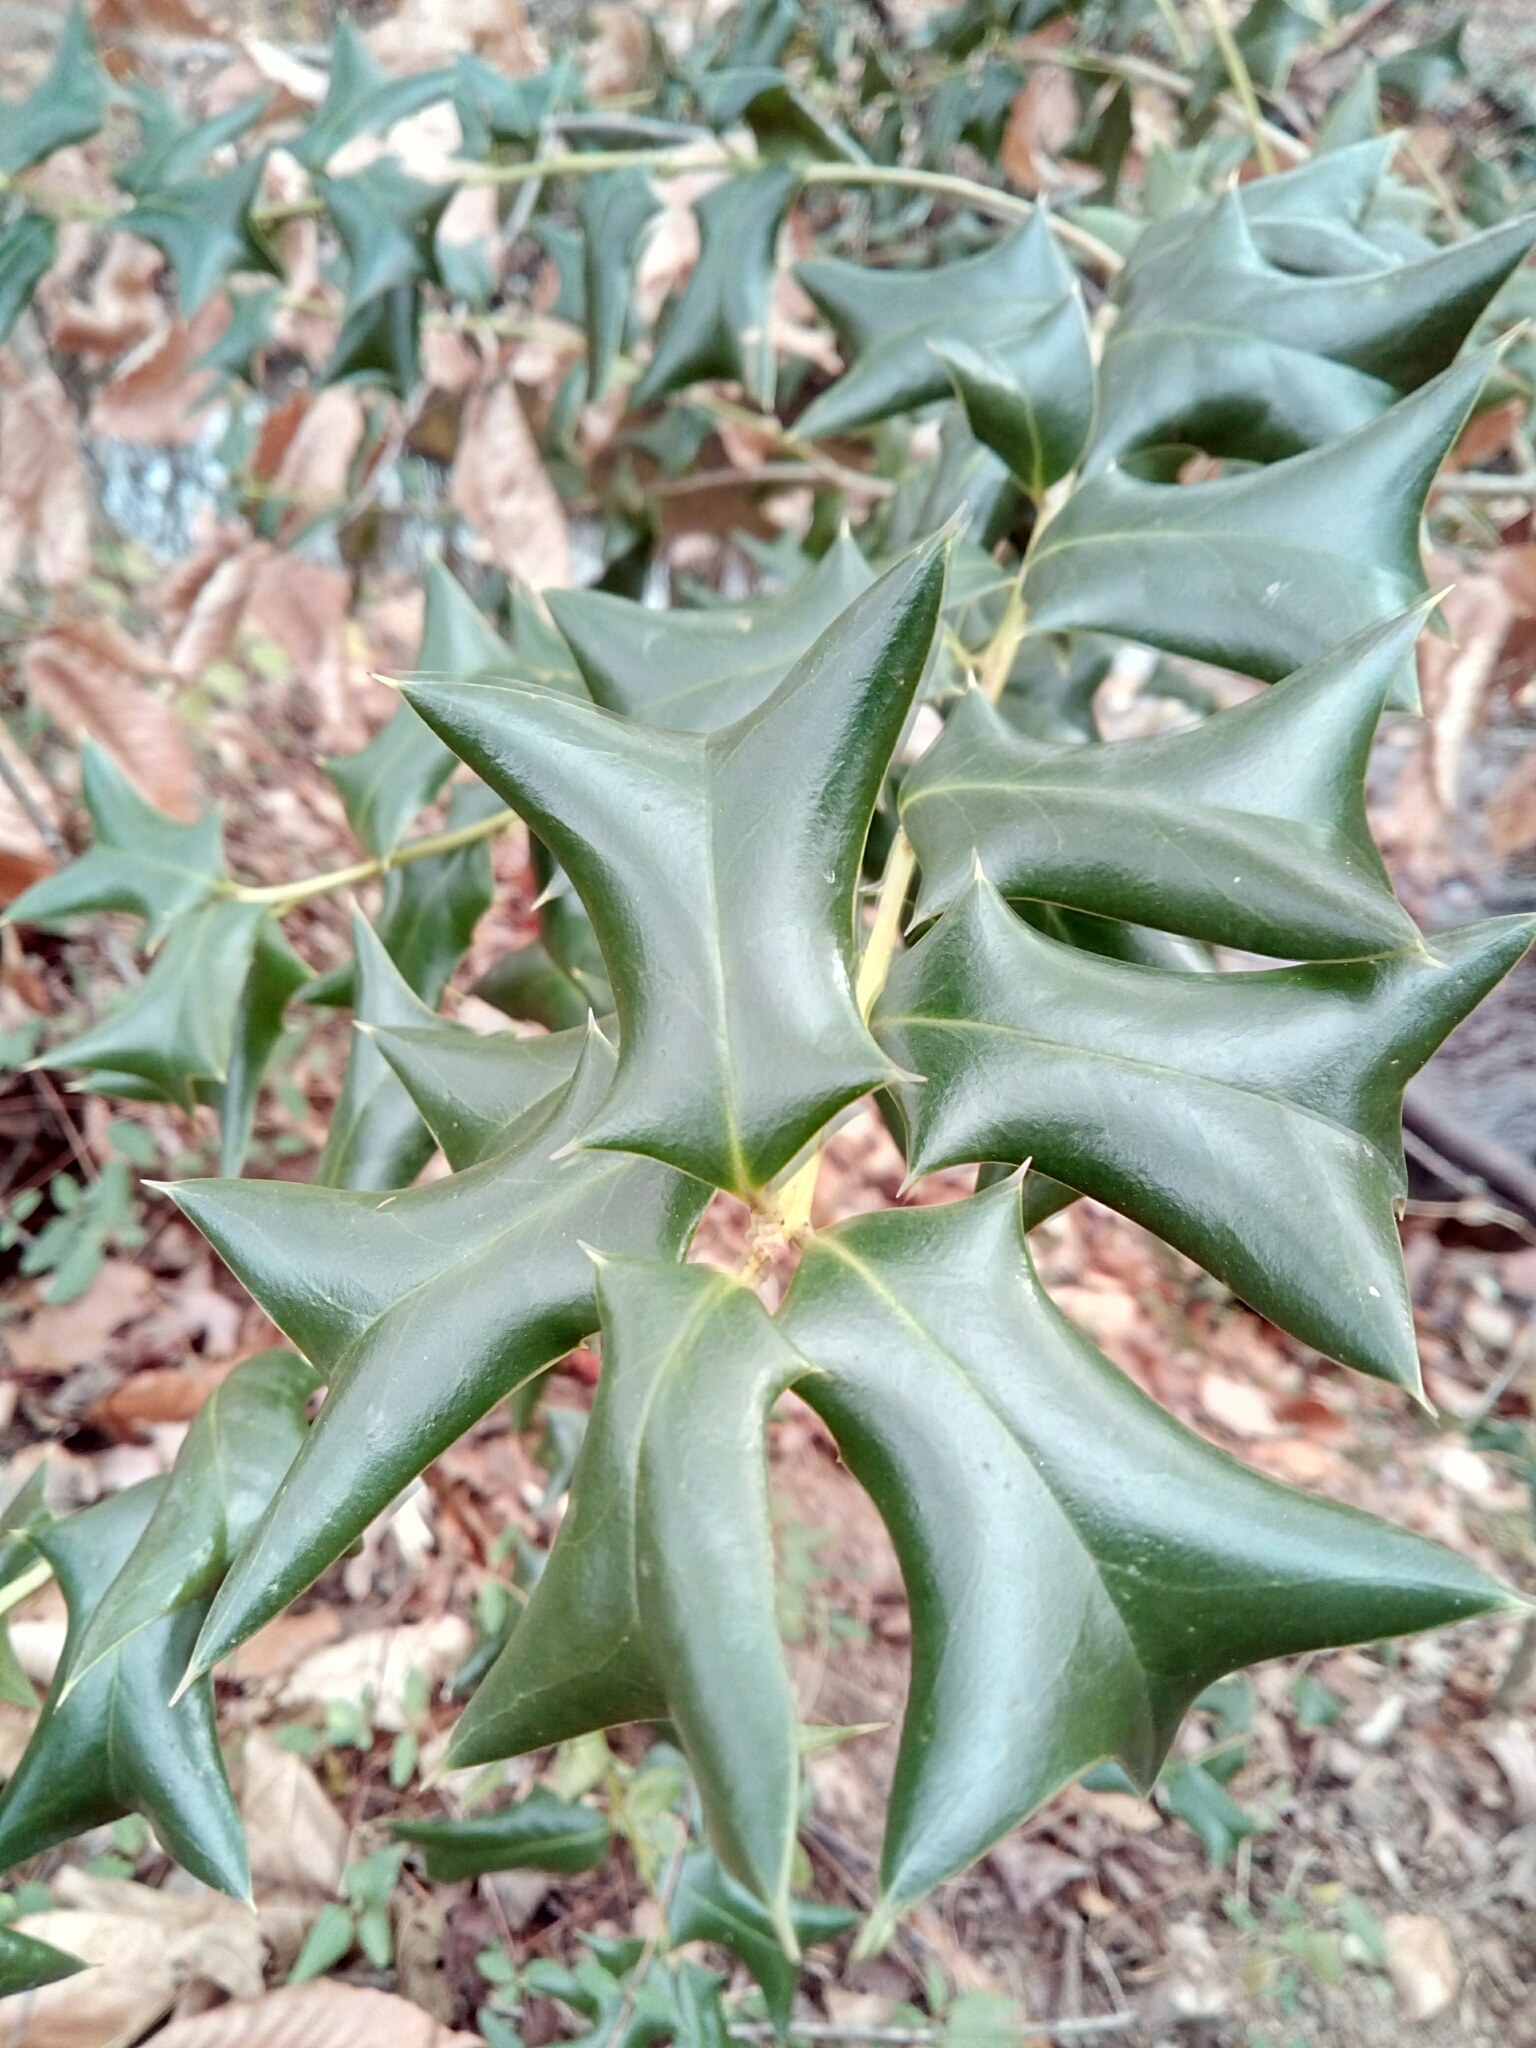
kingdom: Plantae
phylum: Tracheophyta
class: Magnoliopsida
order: Aquifoliales
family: Aquifoliaceae
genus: Ilex
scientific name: Ilex cornuta
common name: Chinese holly
